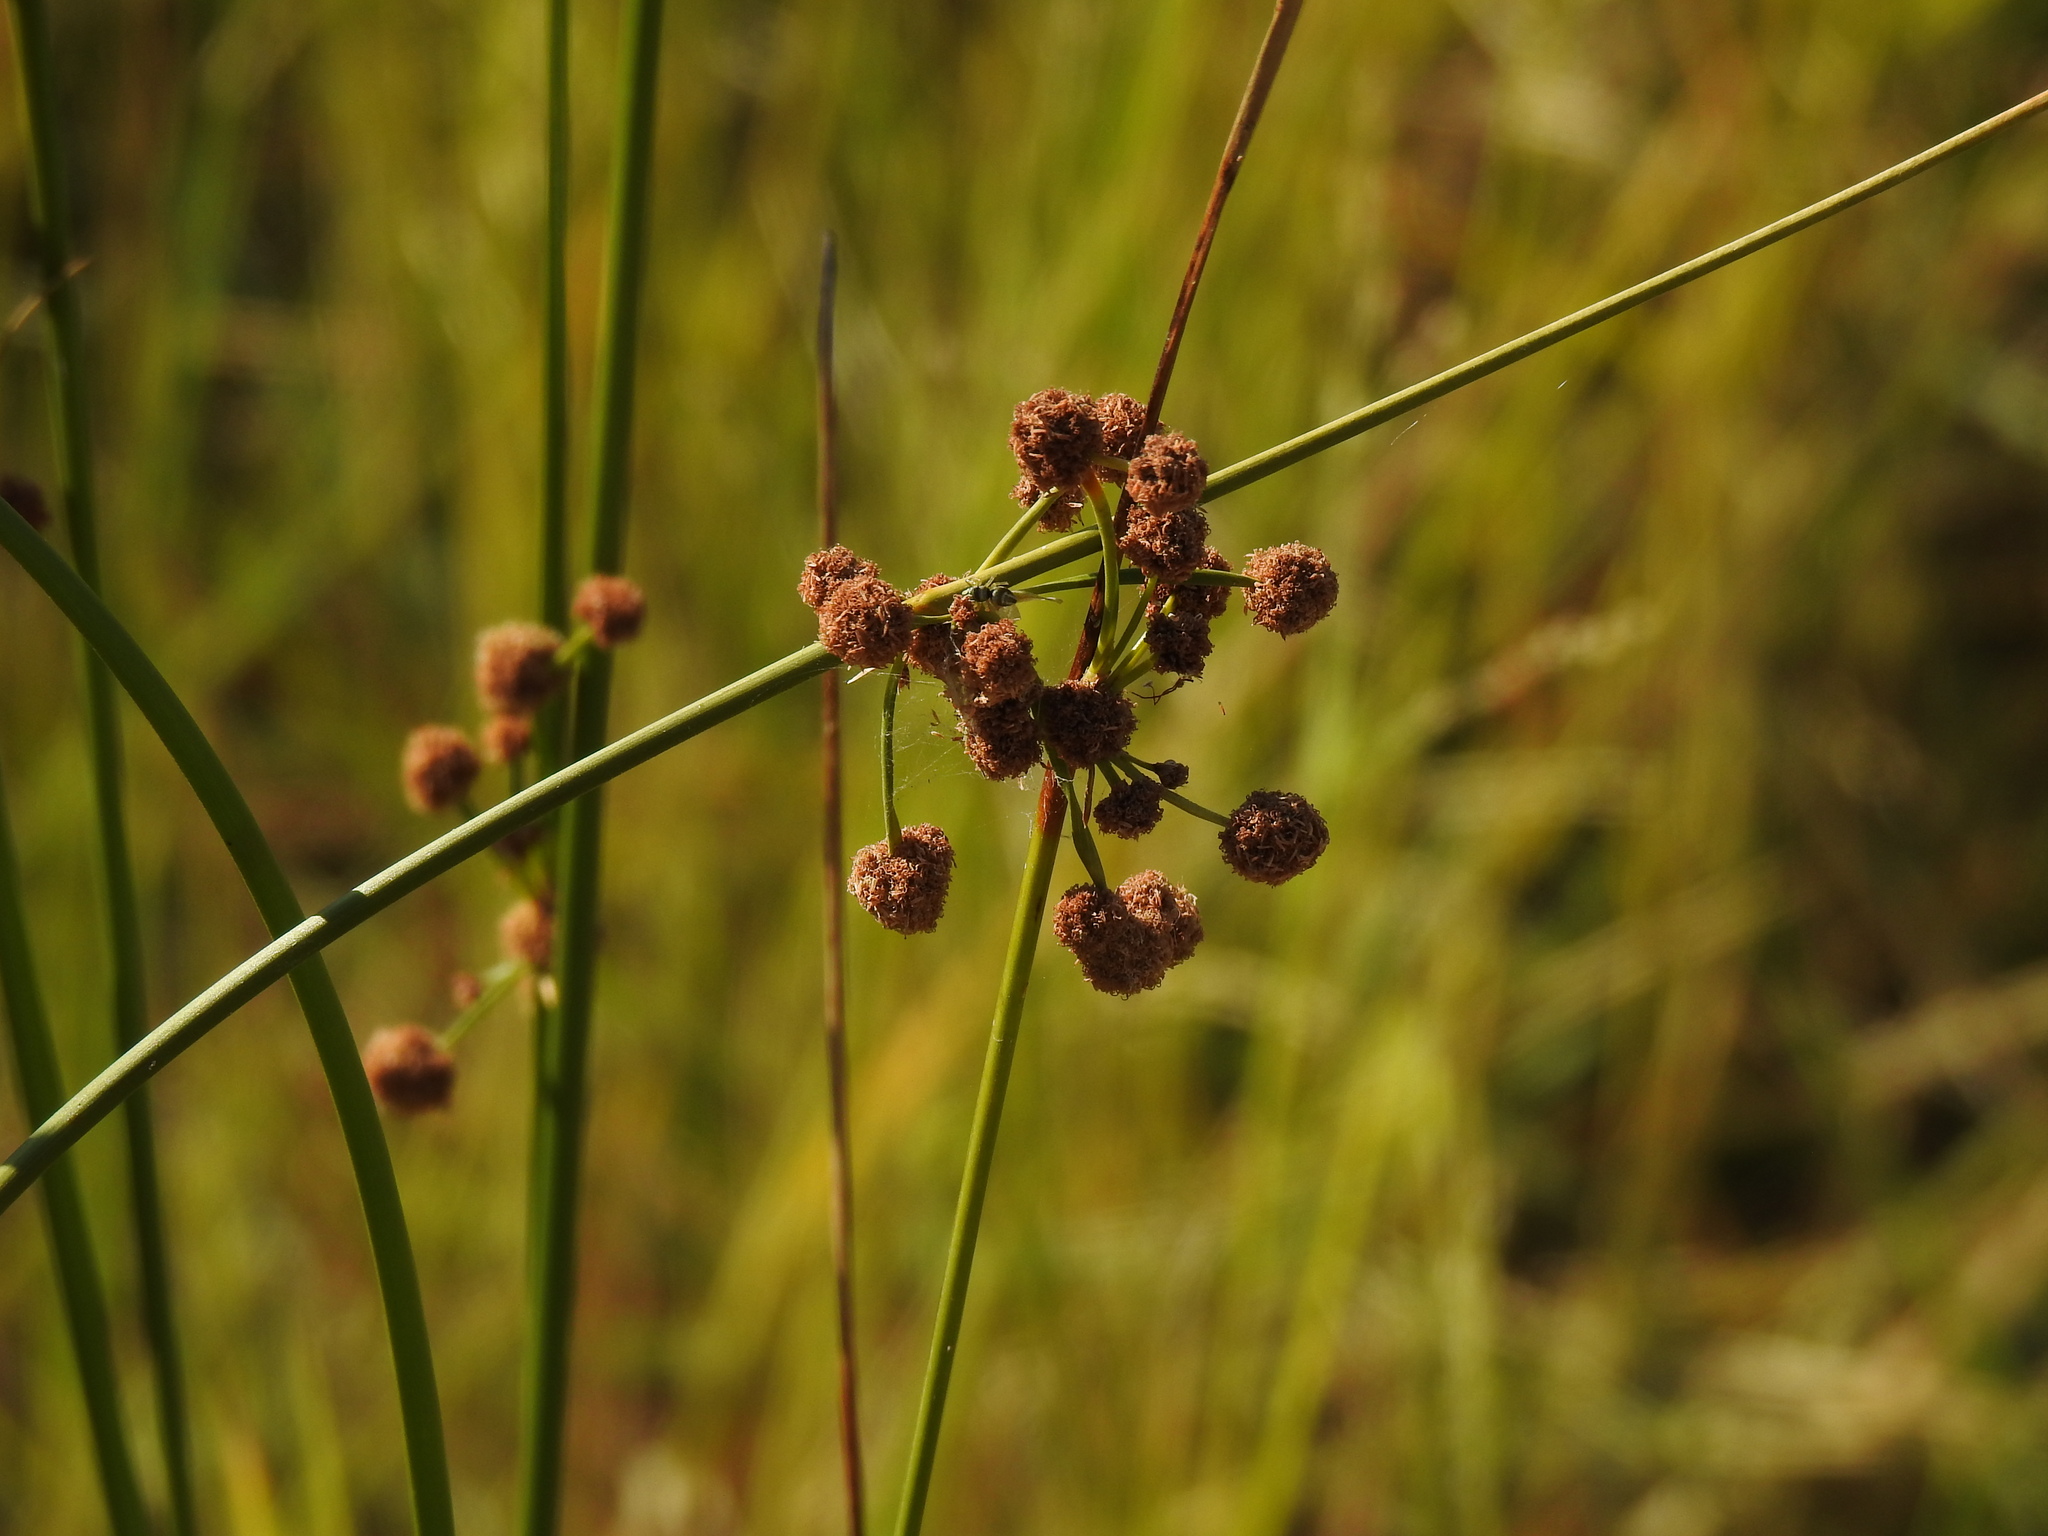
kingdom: Plantae
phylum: Tracheophyta
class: Liliopsida
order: Poales
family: Cyperaceae
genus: Scirpoides
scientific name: Scirpoides holoschoenus
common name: Round-headed club-rush
